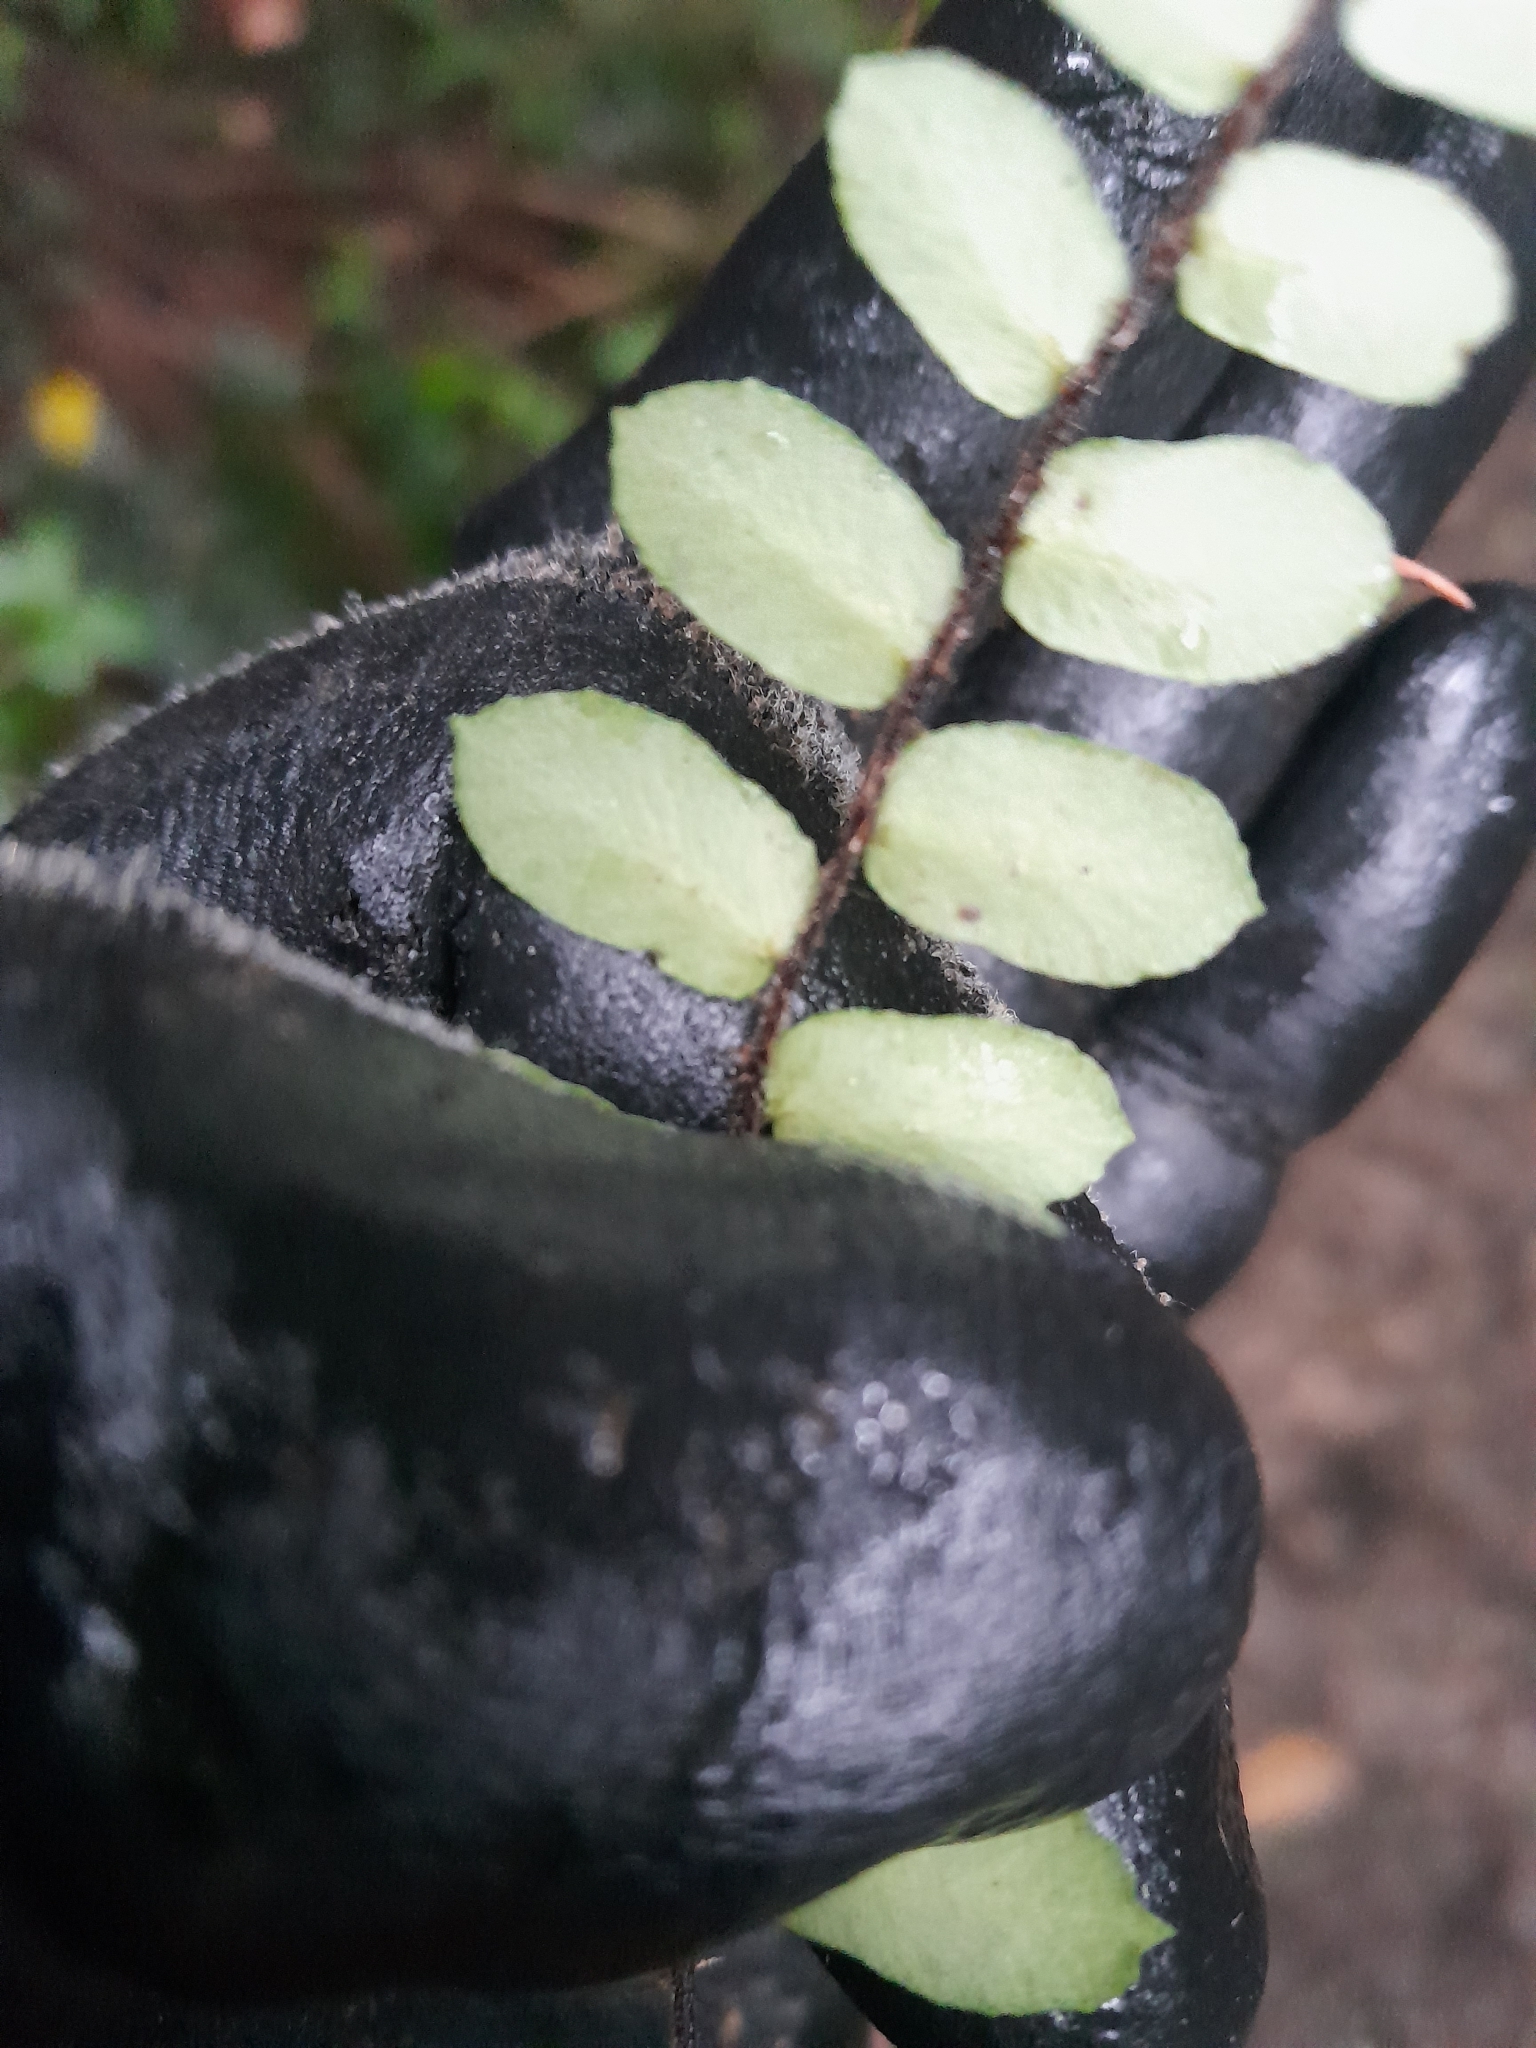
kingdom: Plantae
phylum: Tracheophyta
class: Polypodiopsida
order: Polypodiales
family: Pteridaceae
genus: Pellaea
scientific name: Pellaea rotundifolia
